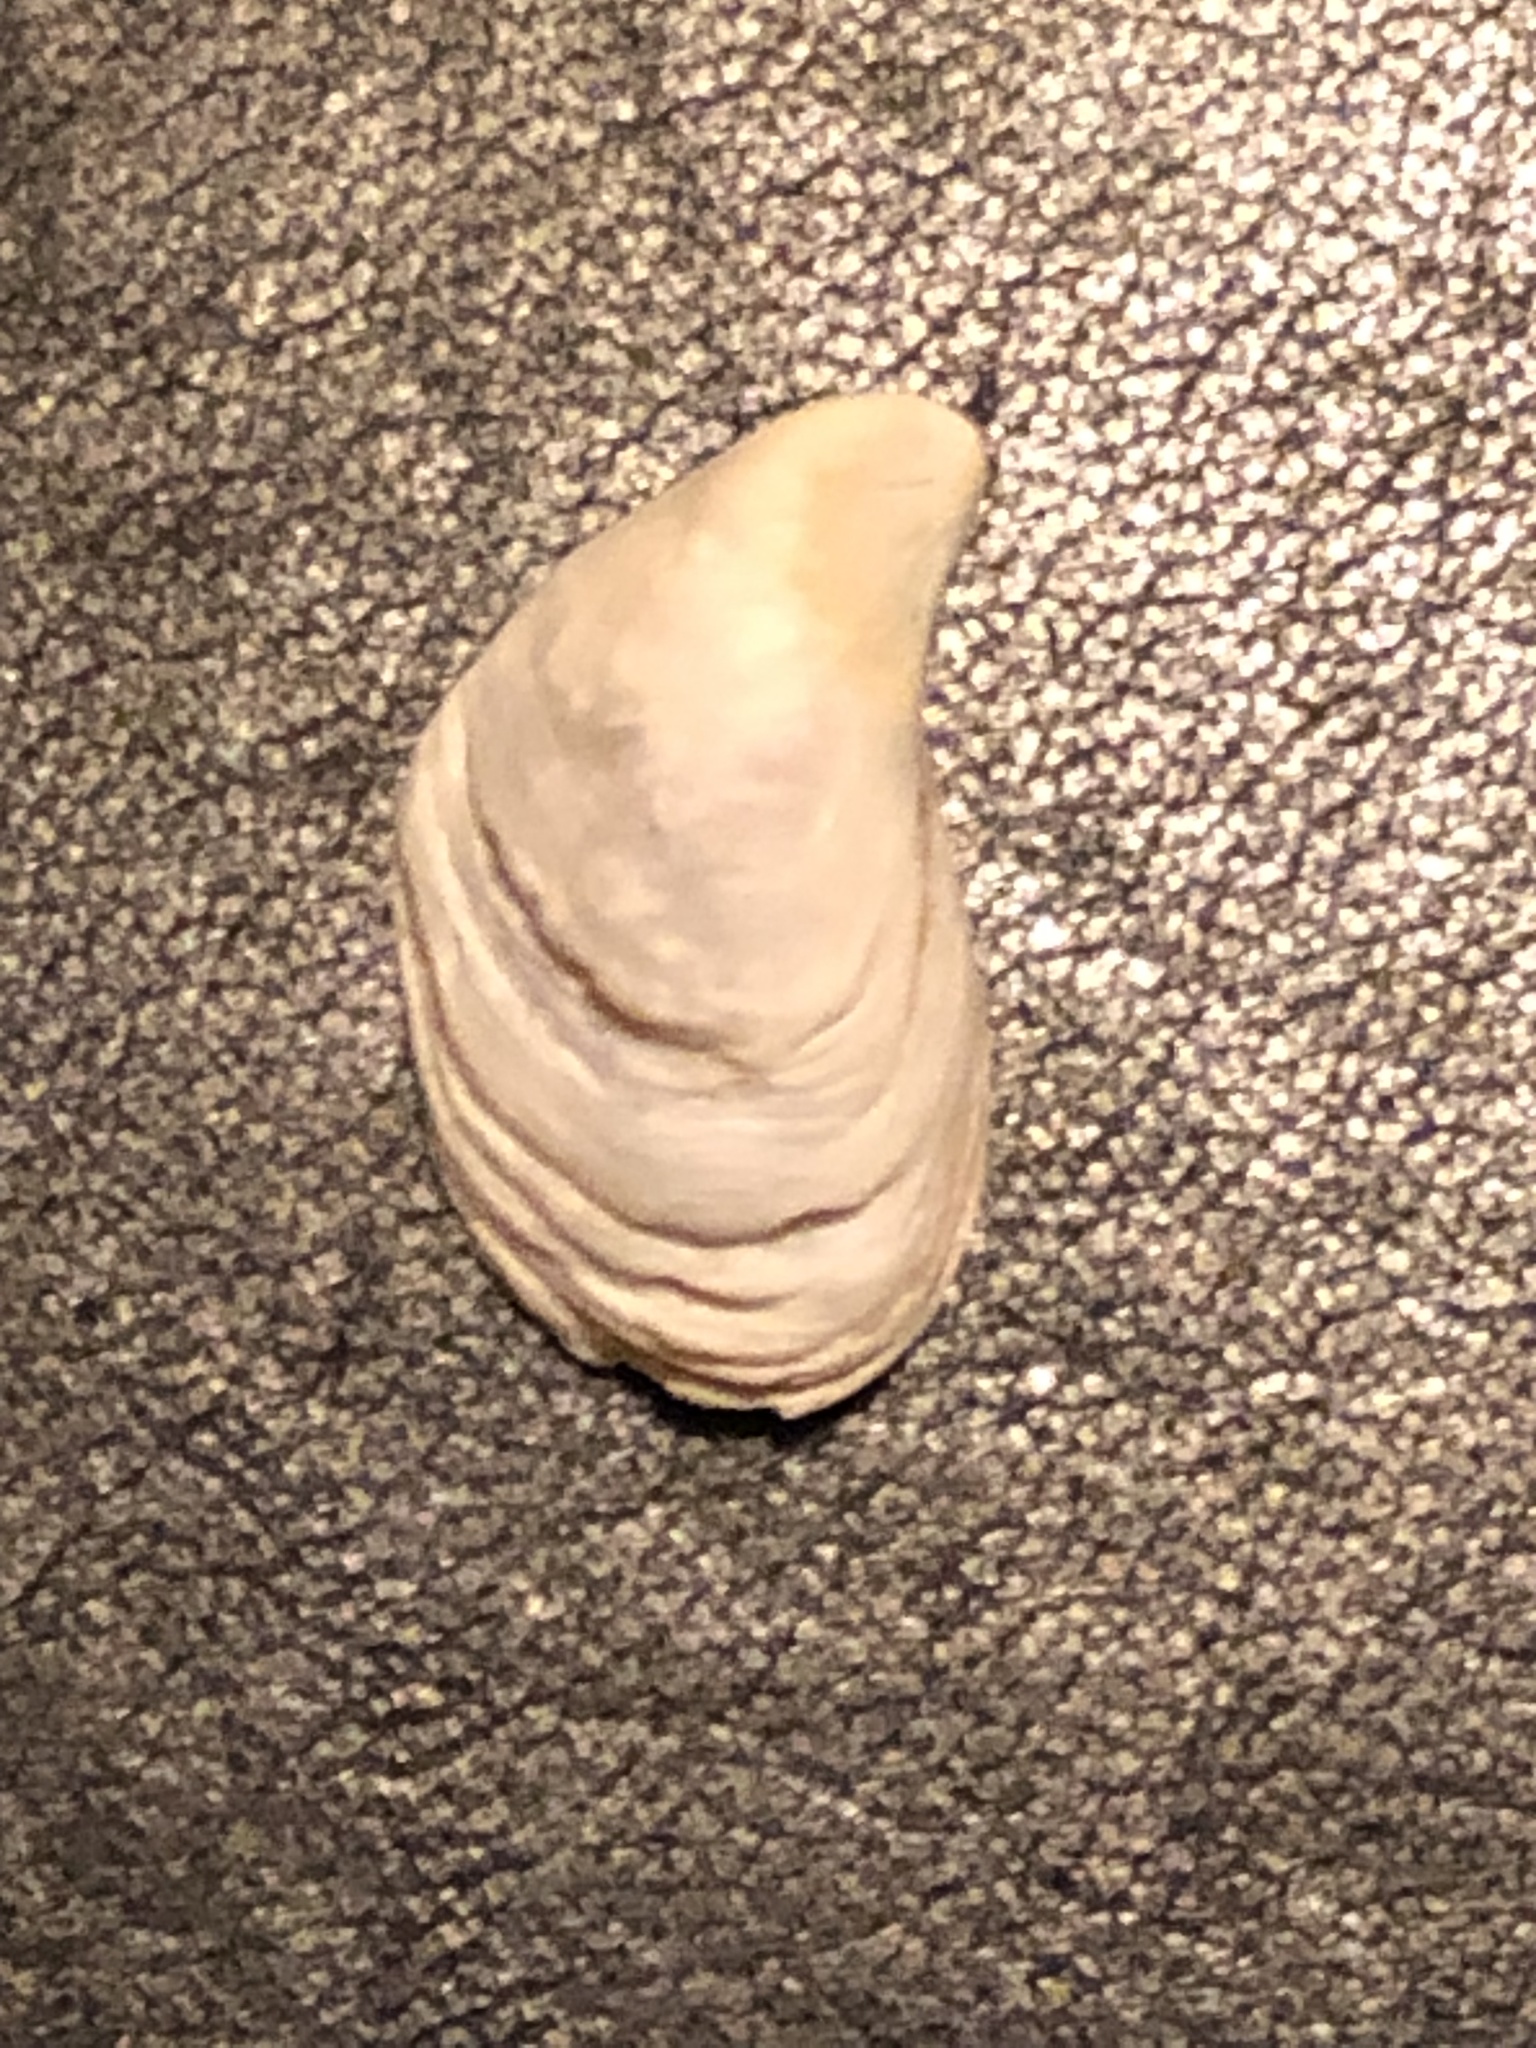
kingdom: Animalia
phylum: Mollusca
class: Bivalvia
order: Myida
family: Dreissenidae
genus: Dreissena
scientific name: Dreissena bugensis
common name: Quagga mussel
